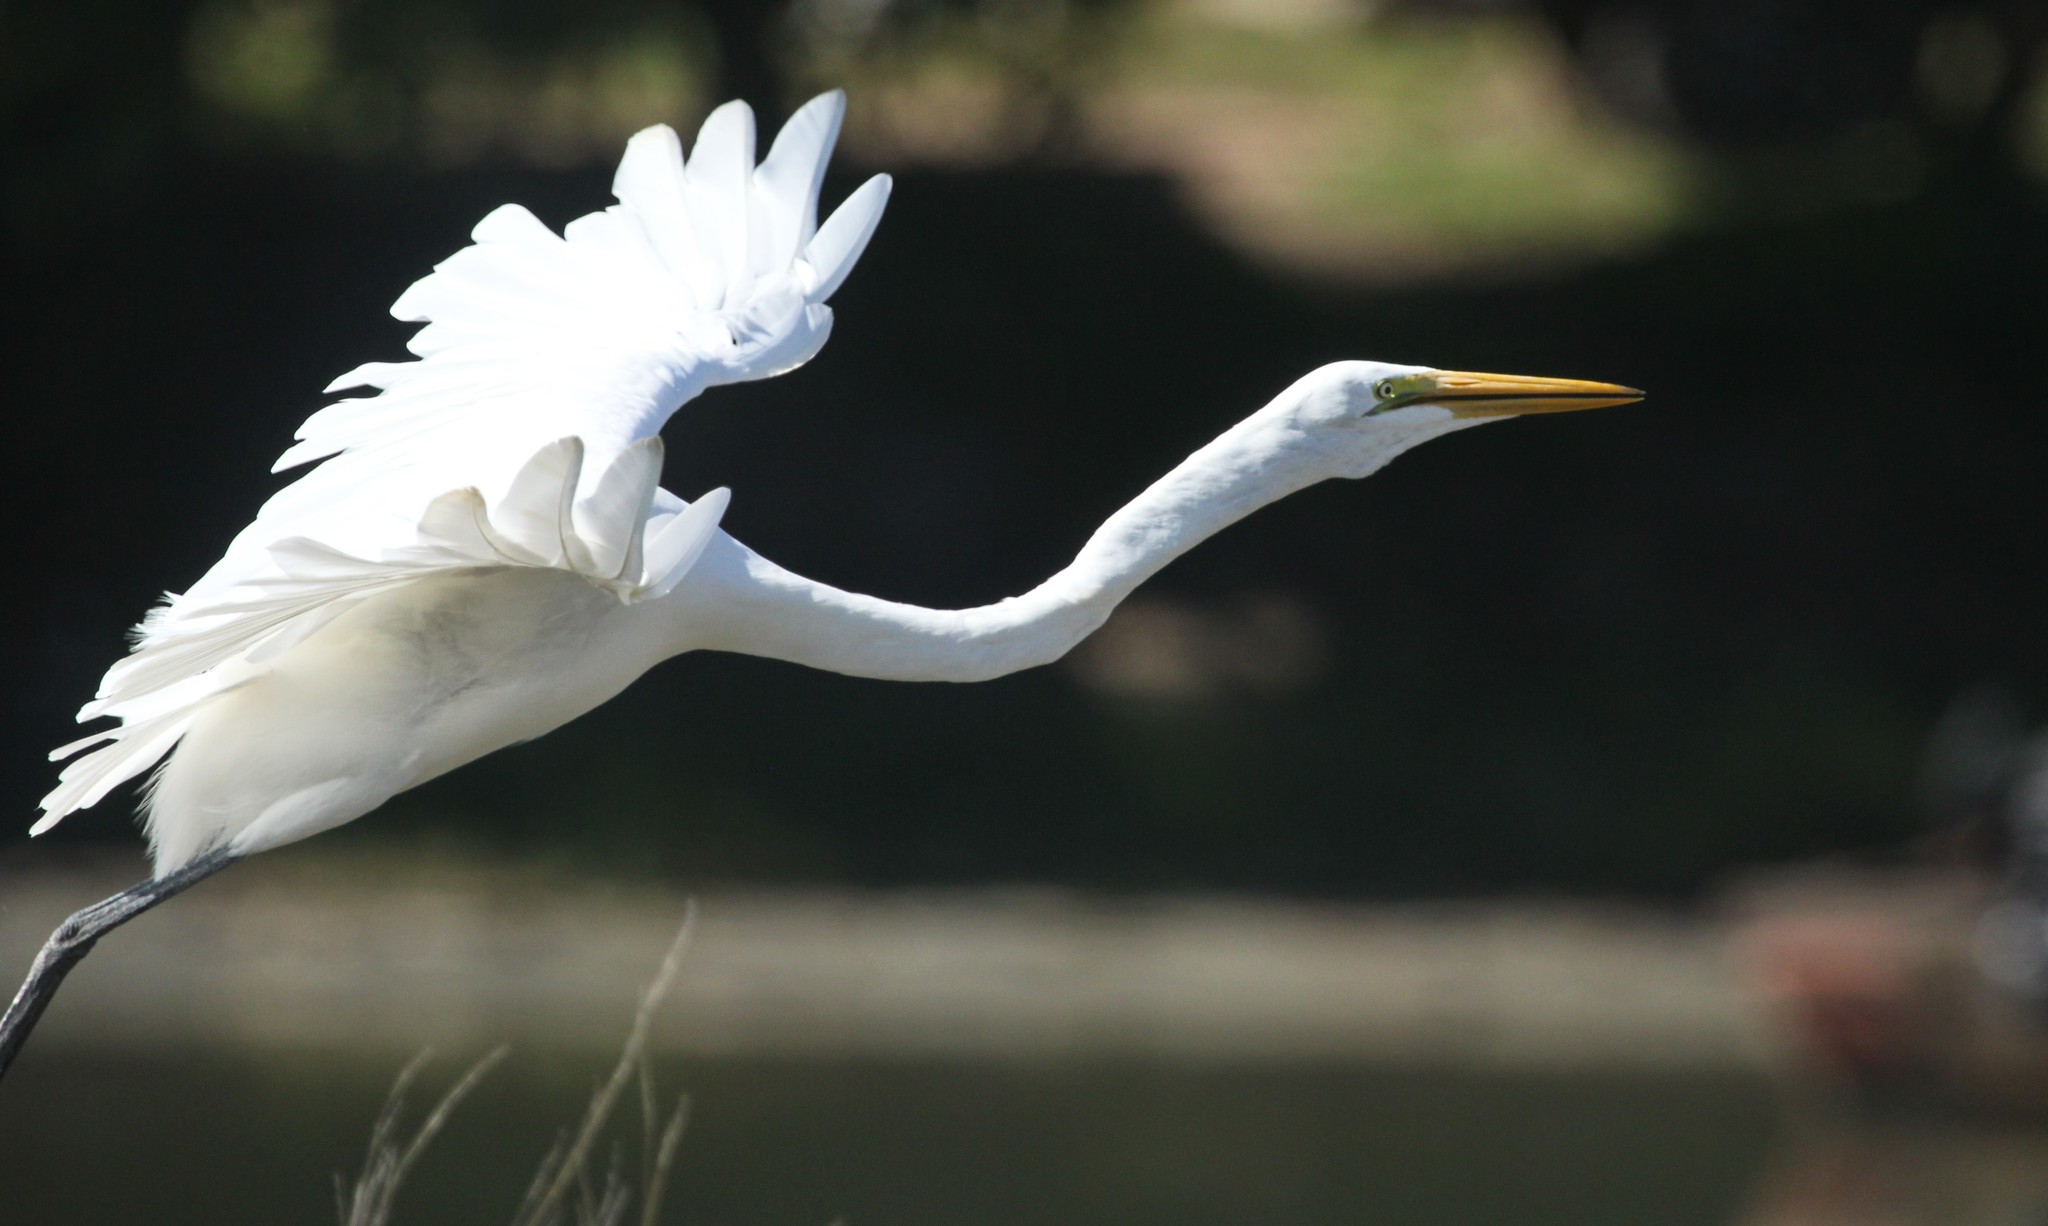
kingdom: Animalia
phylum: Chordata
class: Aves
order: Pelecaniformes
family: Ardeidae
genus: Ardea
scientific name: Ardea alba
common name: Great egret
